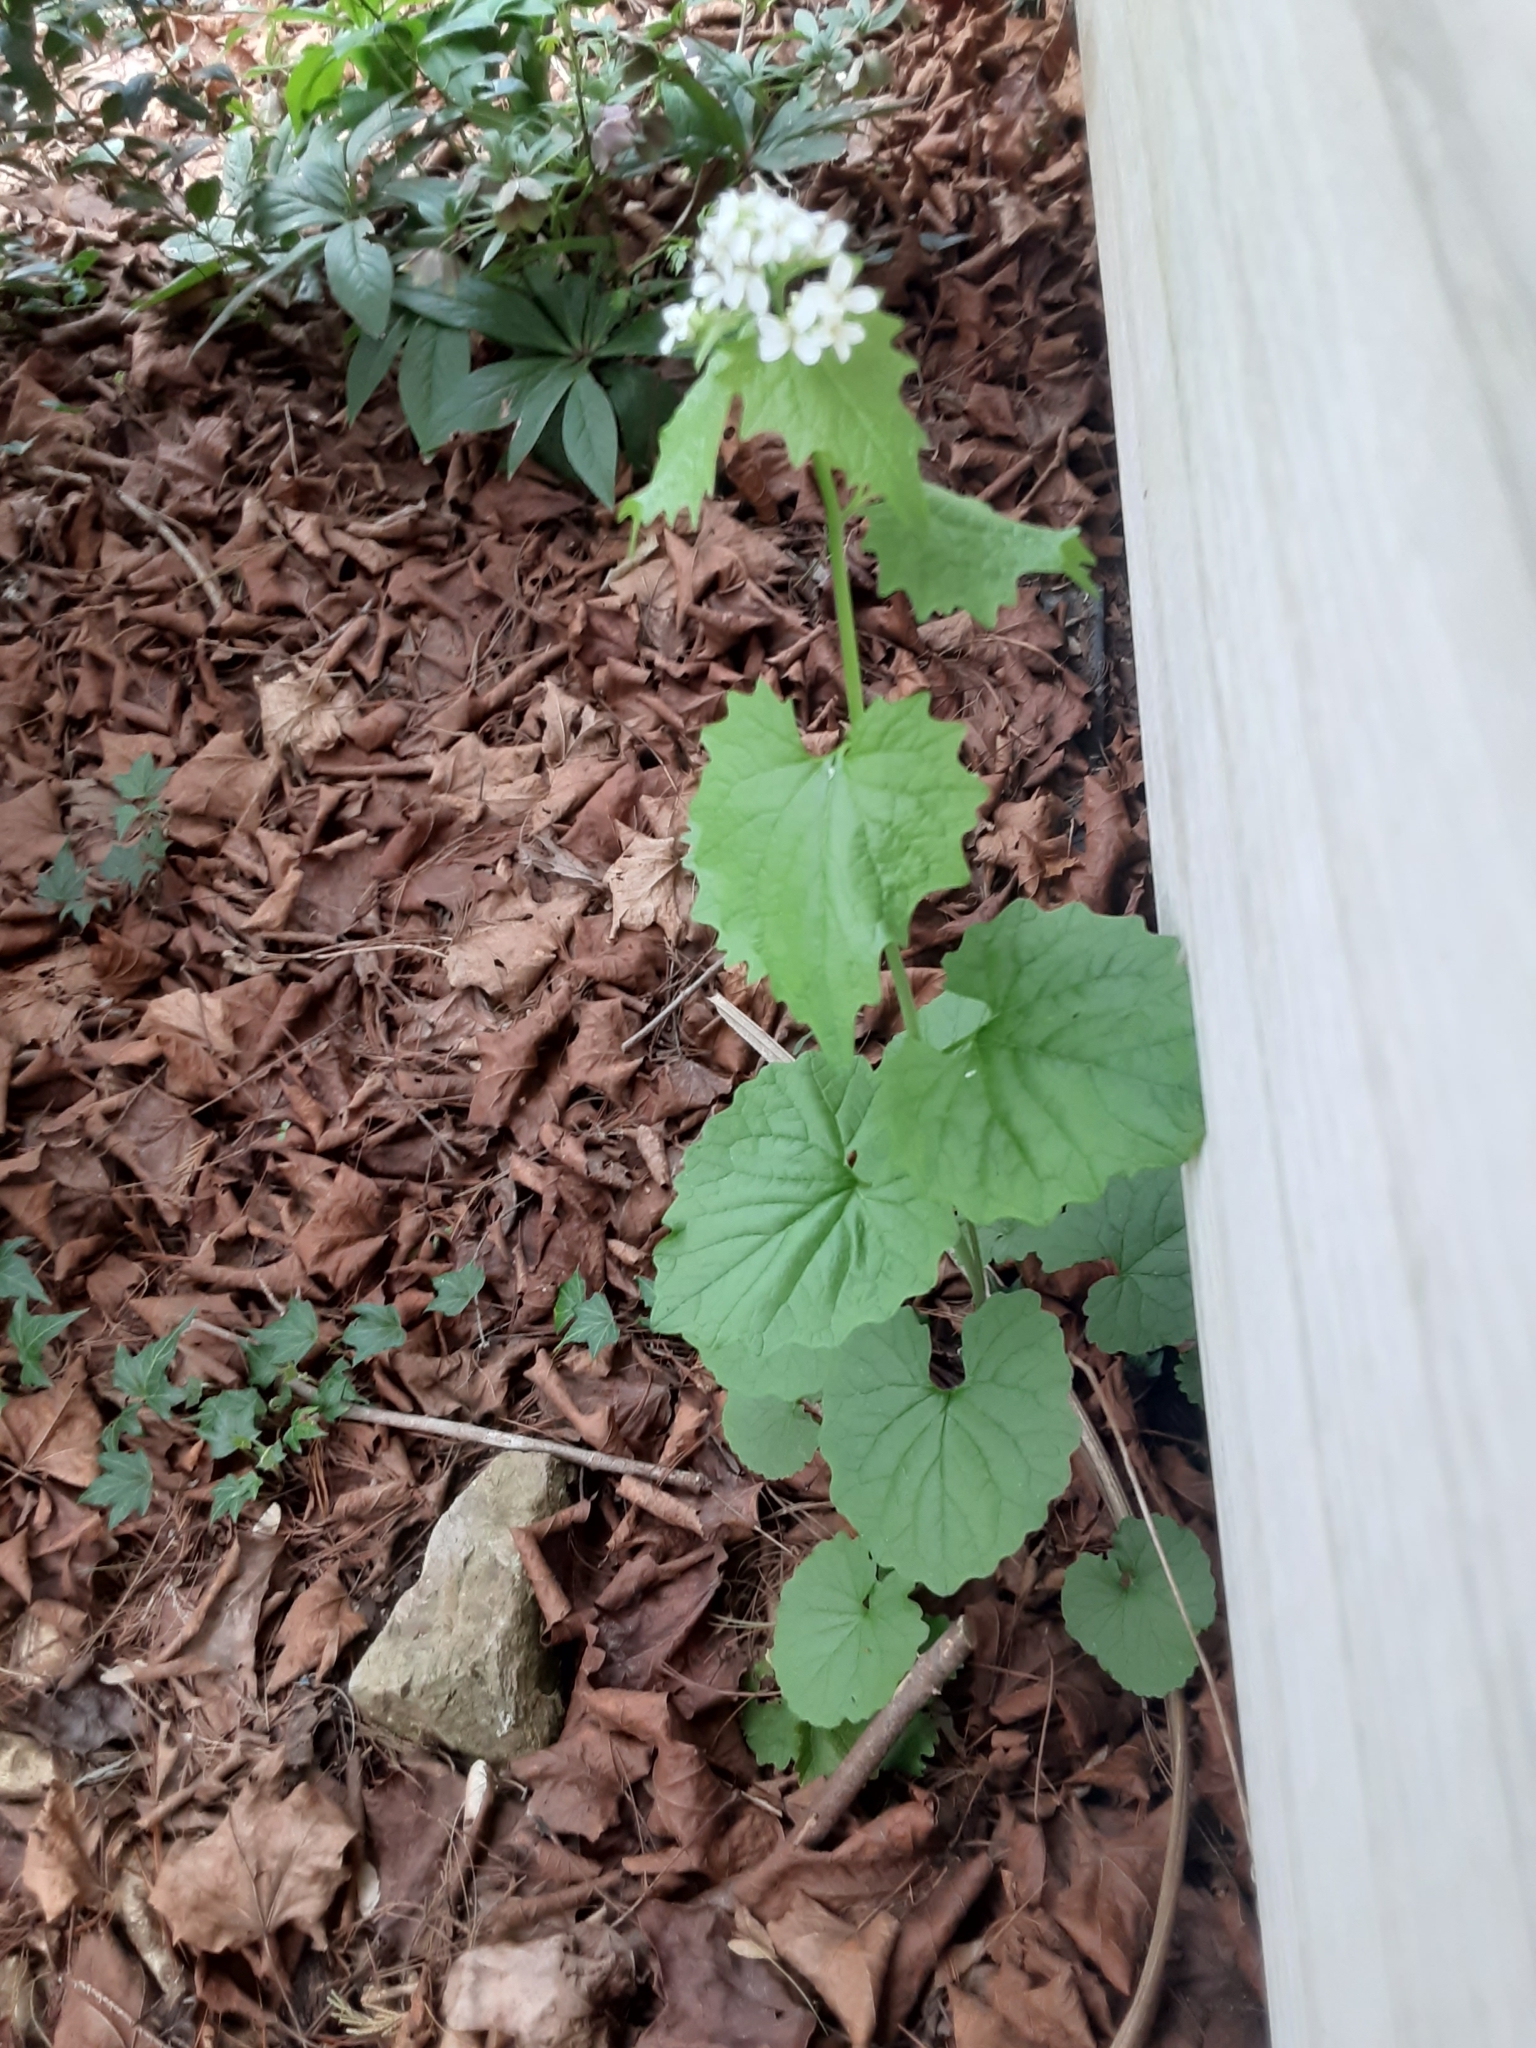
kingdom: Plantae
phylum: Tracheophyta
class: Magnoliopsida
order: Brassicales
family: Brassicaceae
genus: Alliaria
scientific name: Alliaria petiolata
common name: Garlic mustard
